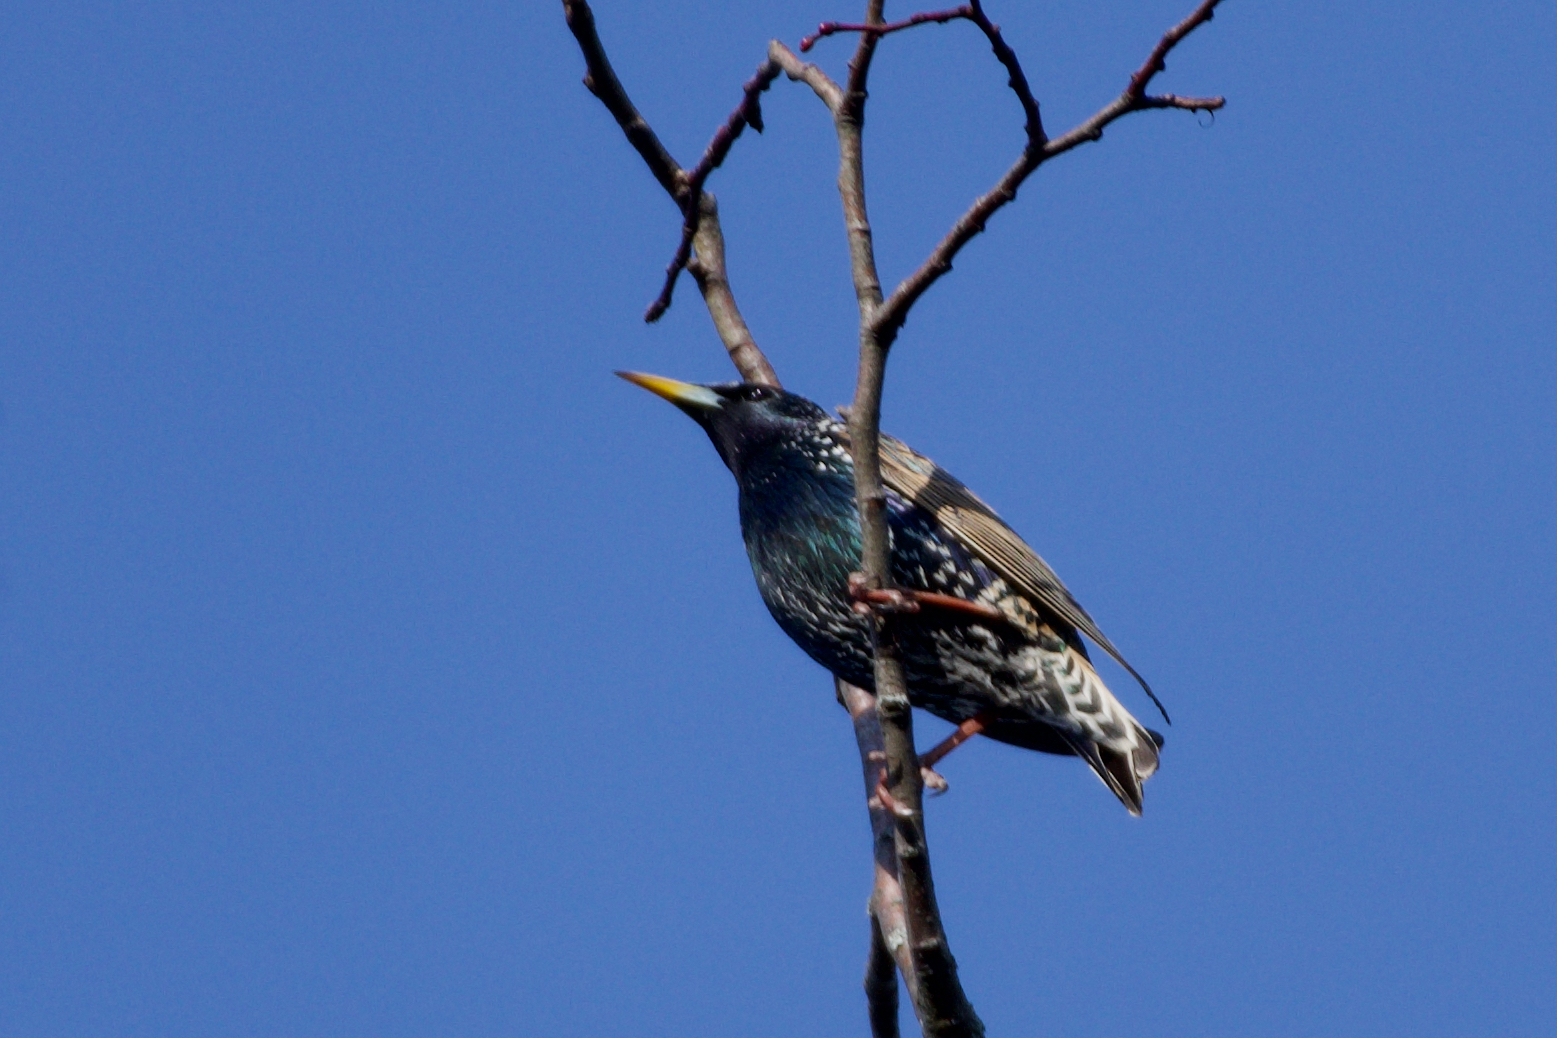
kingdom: Animalia
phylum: Chordata
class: Aves
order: Passeriformes
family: Sturnidae
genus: Sturnus
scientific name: Sturnus vulgaris
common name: Common starling
